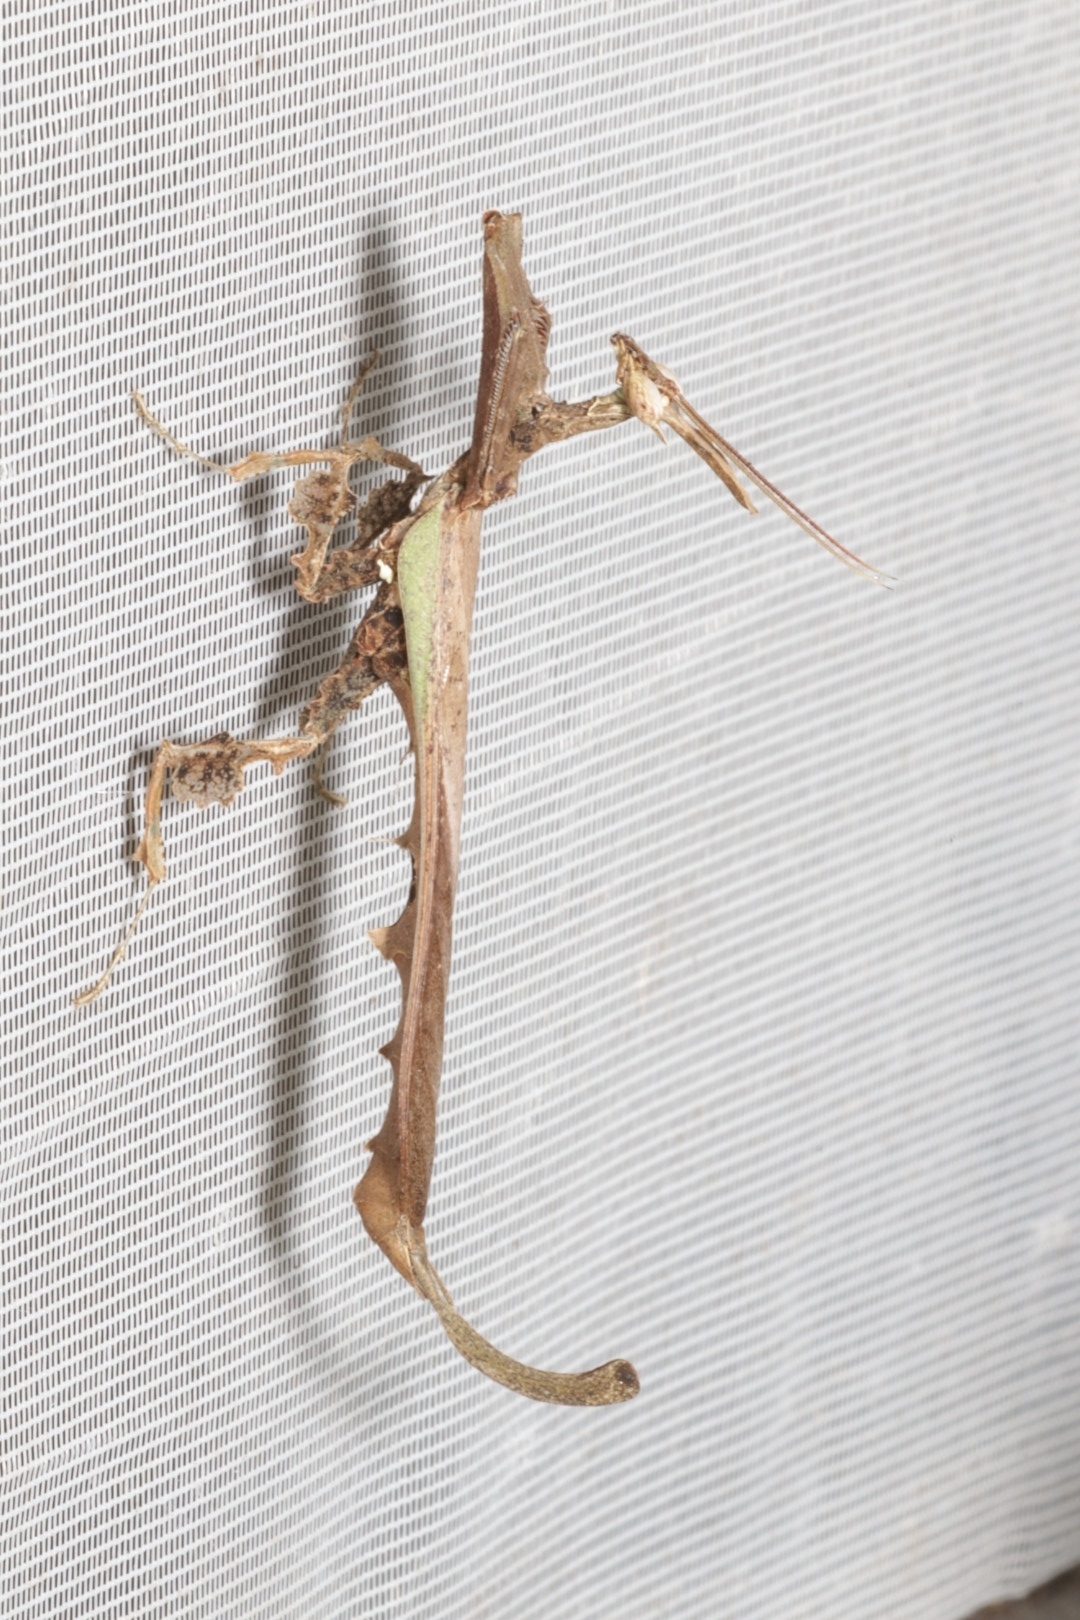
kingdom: Animalia
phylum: Arthropoda
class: Insecta
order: Mantodea
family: Acanthopidae
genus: Stenophylla
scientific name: Stenophylla lobivertex
